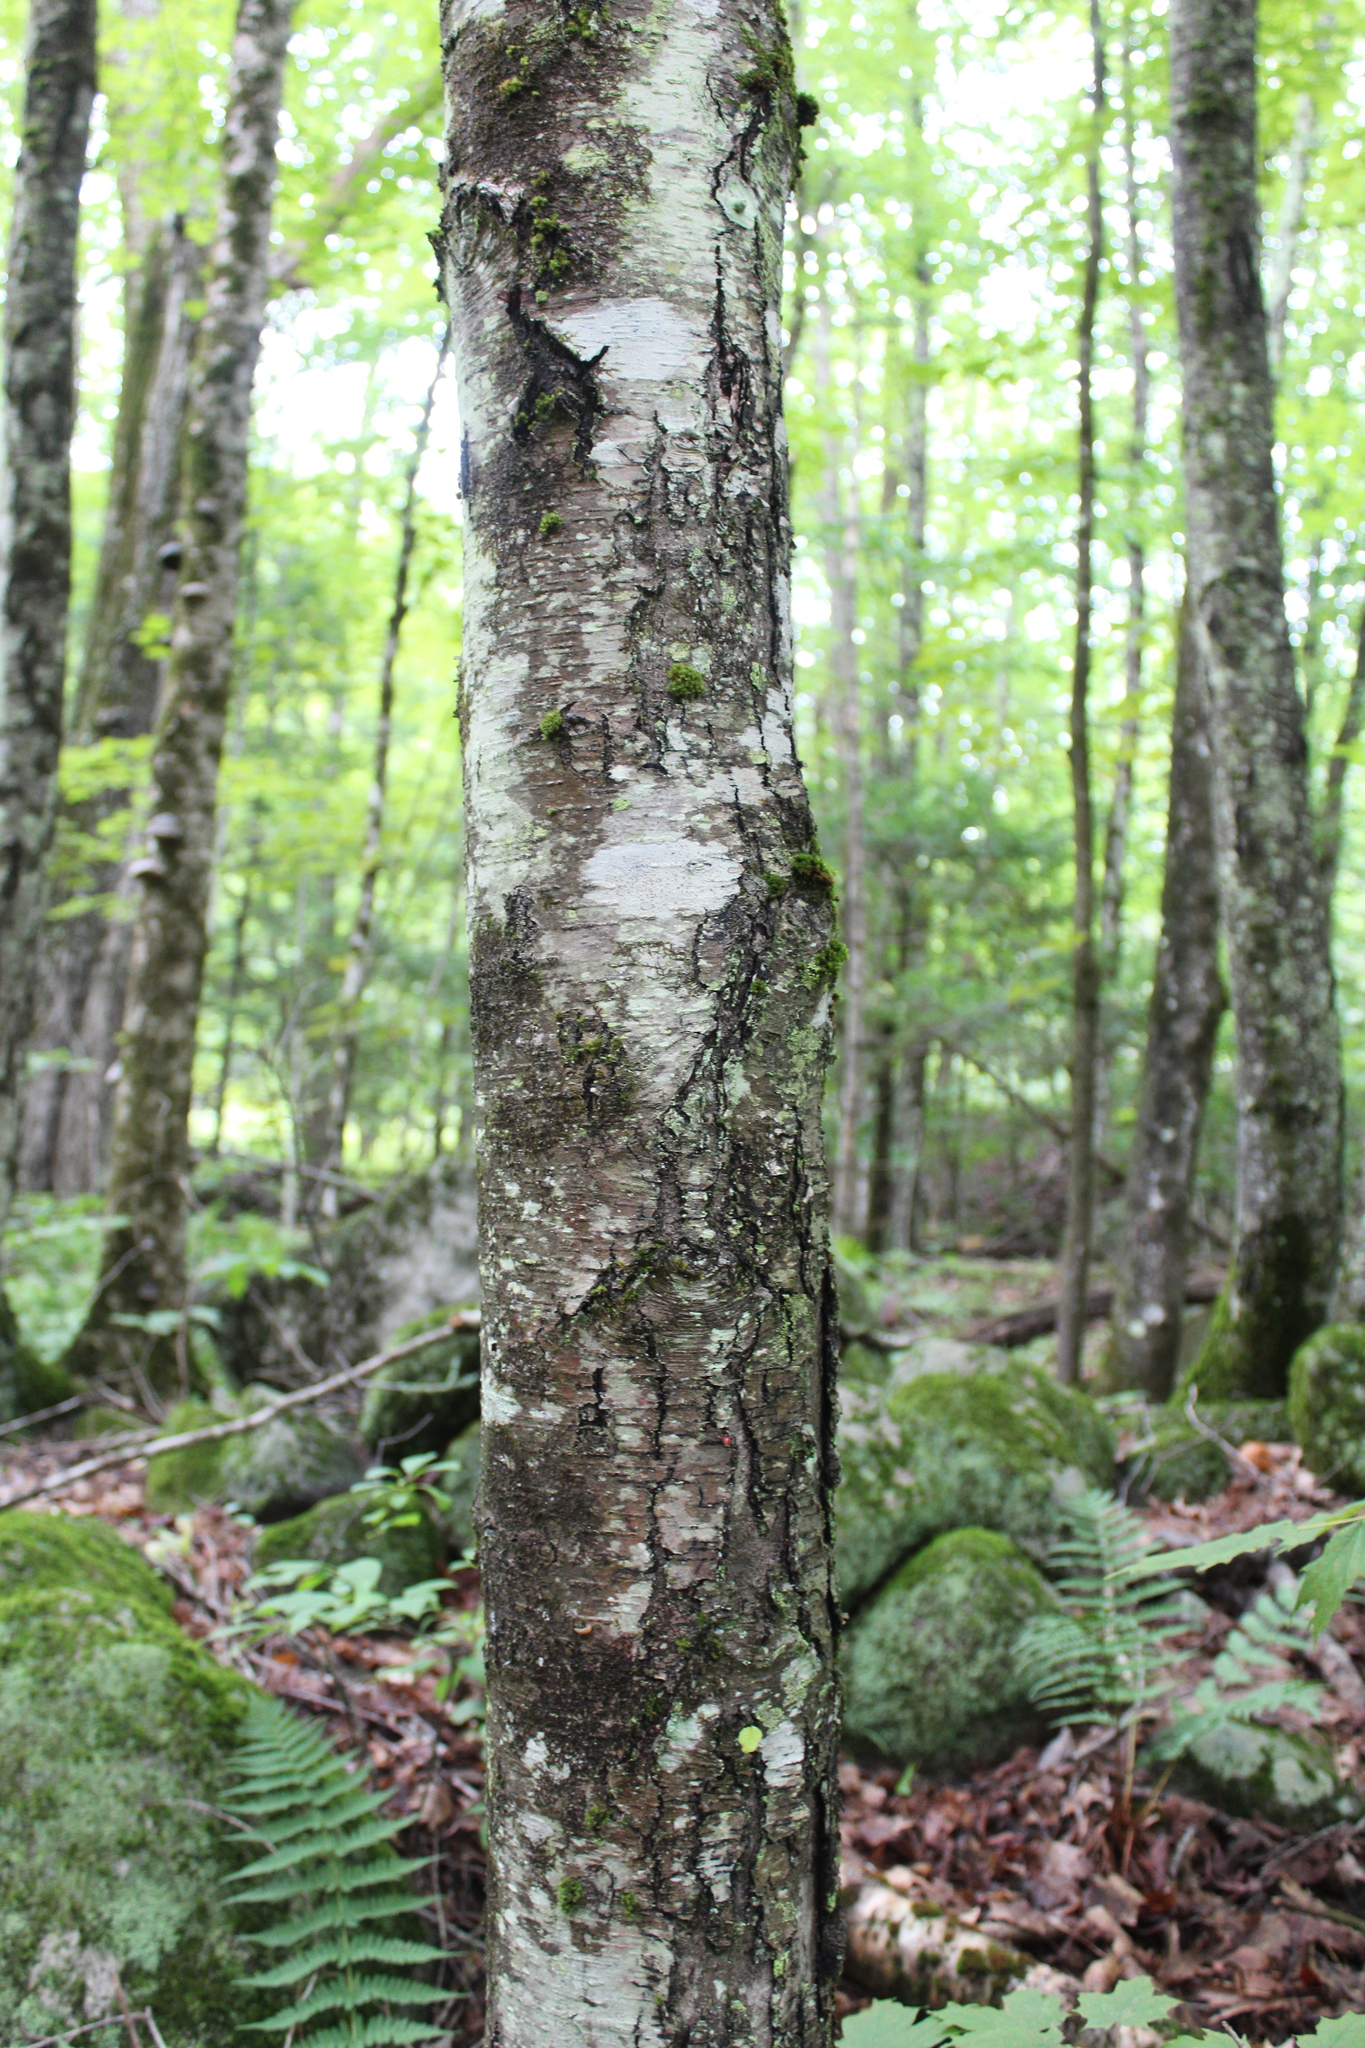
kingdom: Plantae
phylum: Tracheophyta
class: Magnoliopsida
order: Fagales
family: Betulaceae
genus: Betula
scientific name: Betula lenta
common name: Black birch
